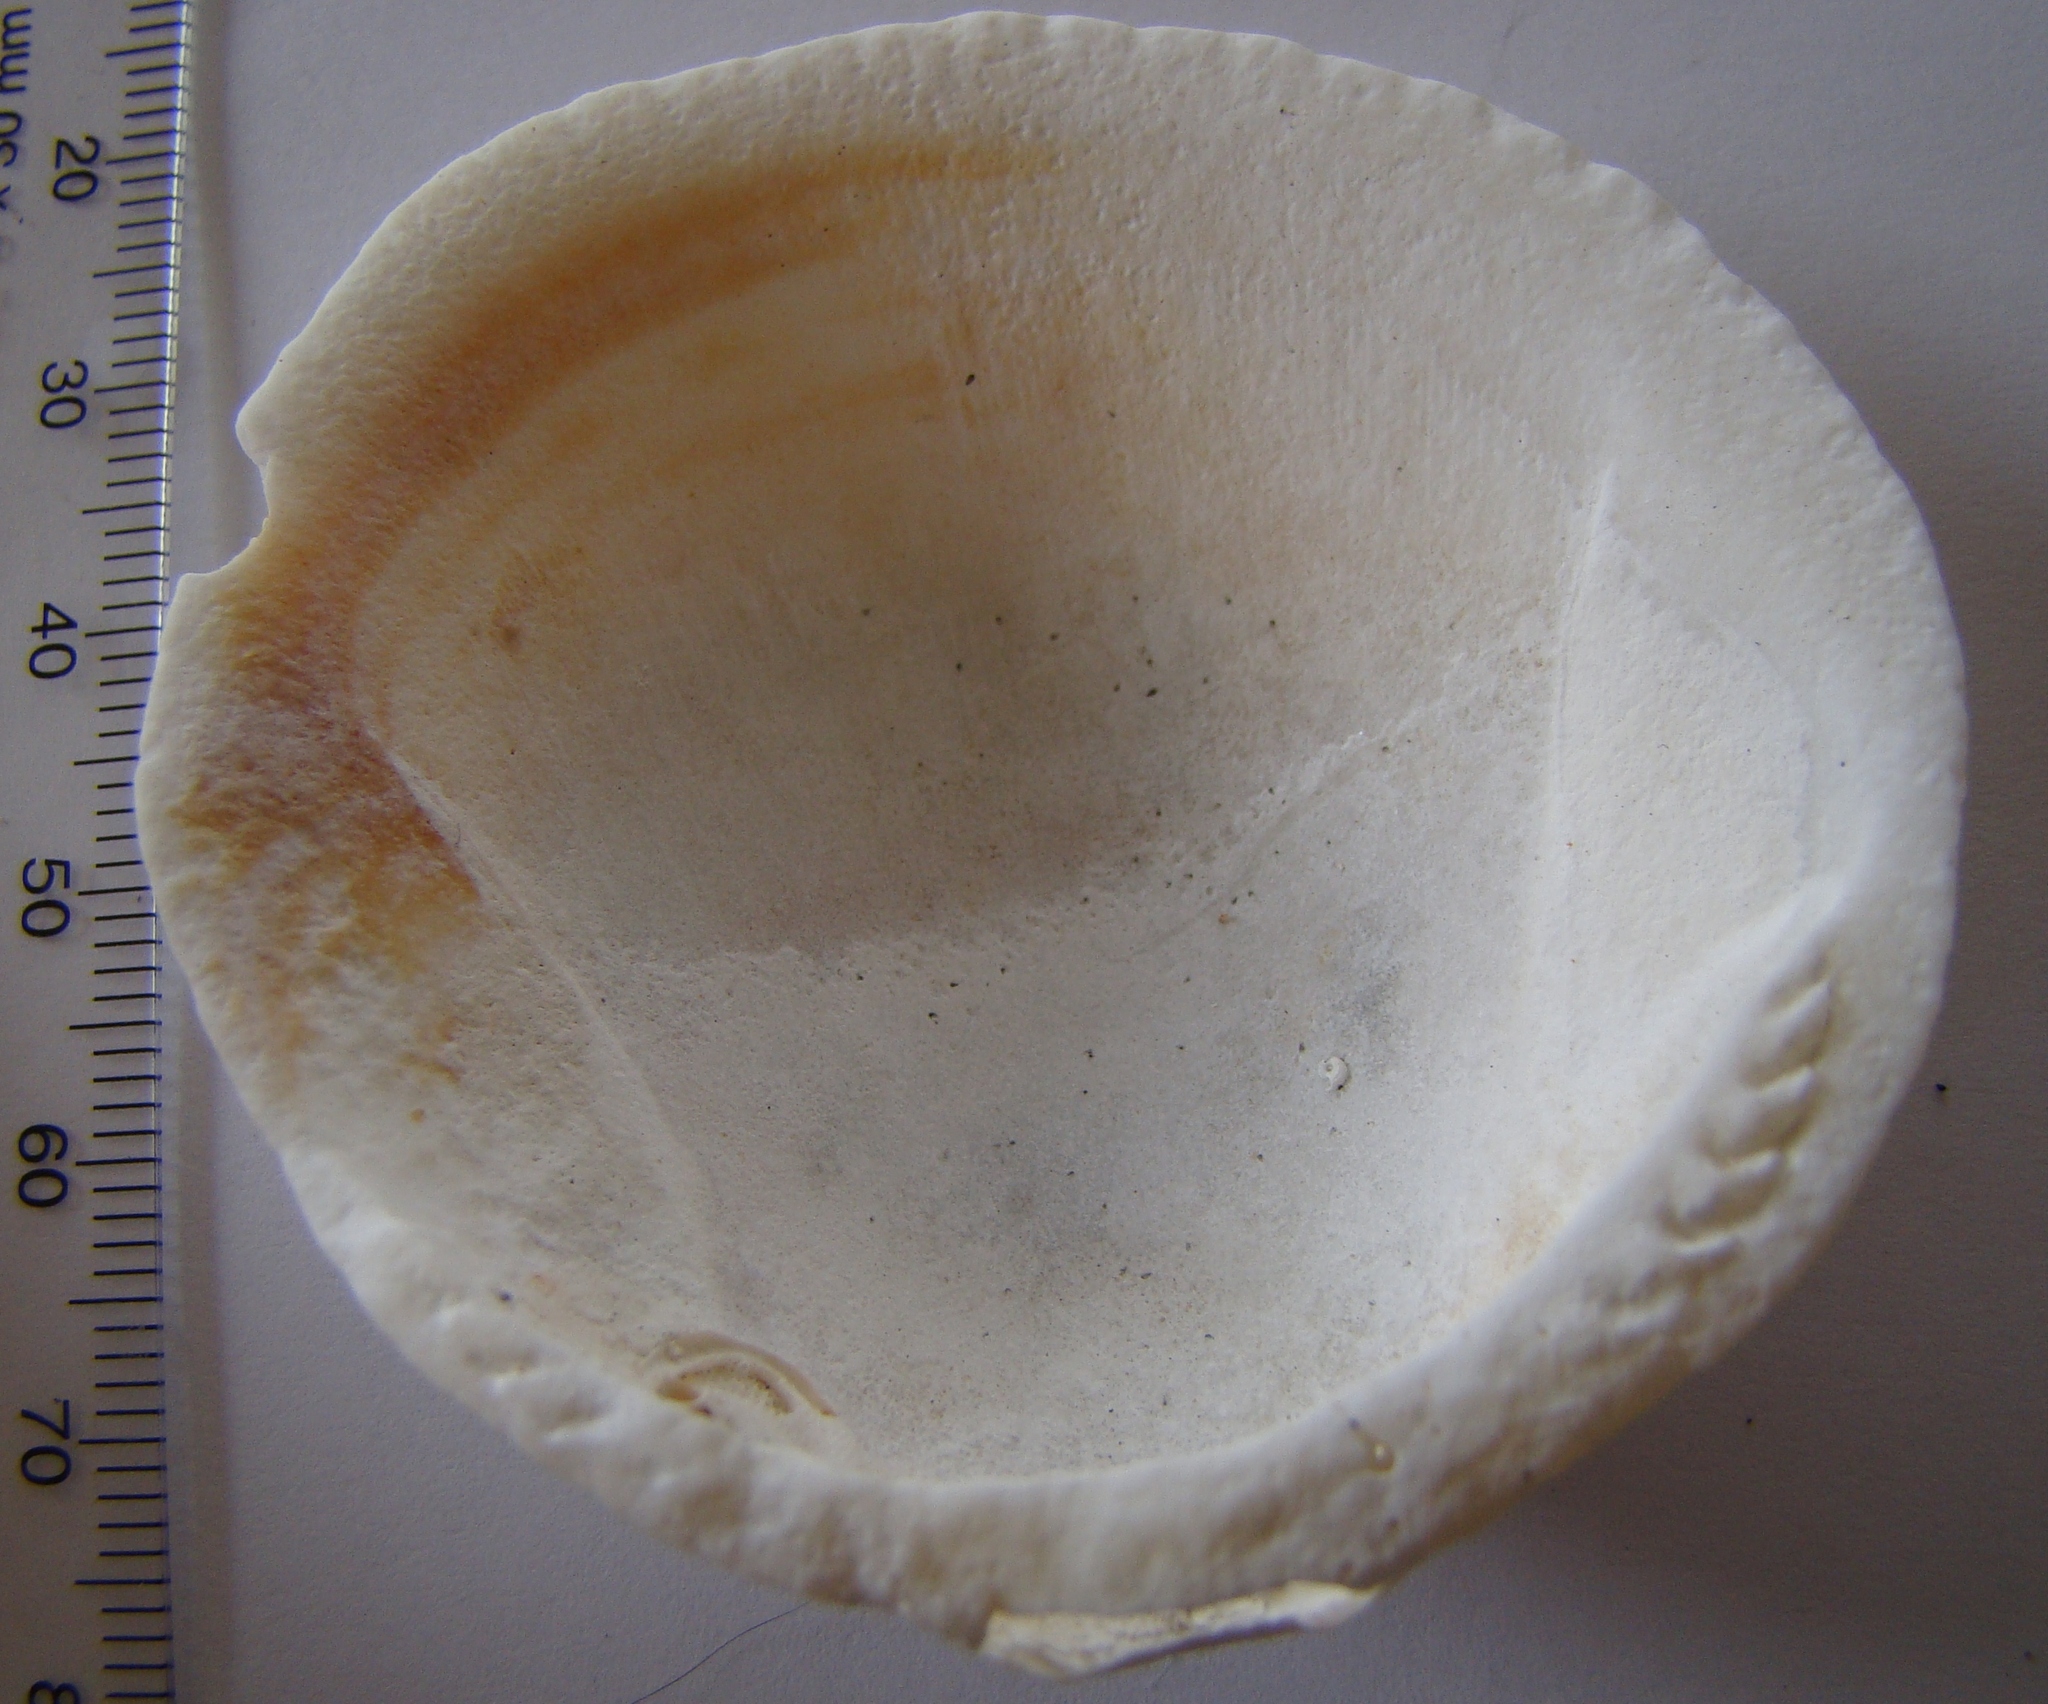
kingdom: Animalia
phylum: Mollusca
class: Bivalvia
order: Arcida
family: Glycymerididae
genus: Tucetona
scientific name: Tucetona laticostata
